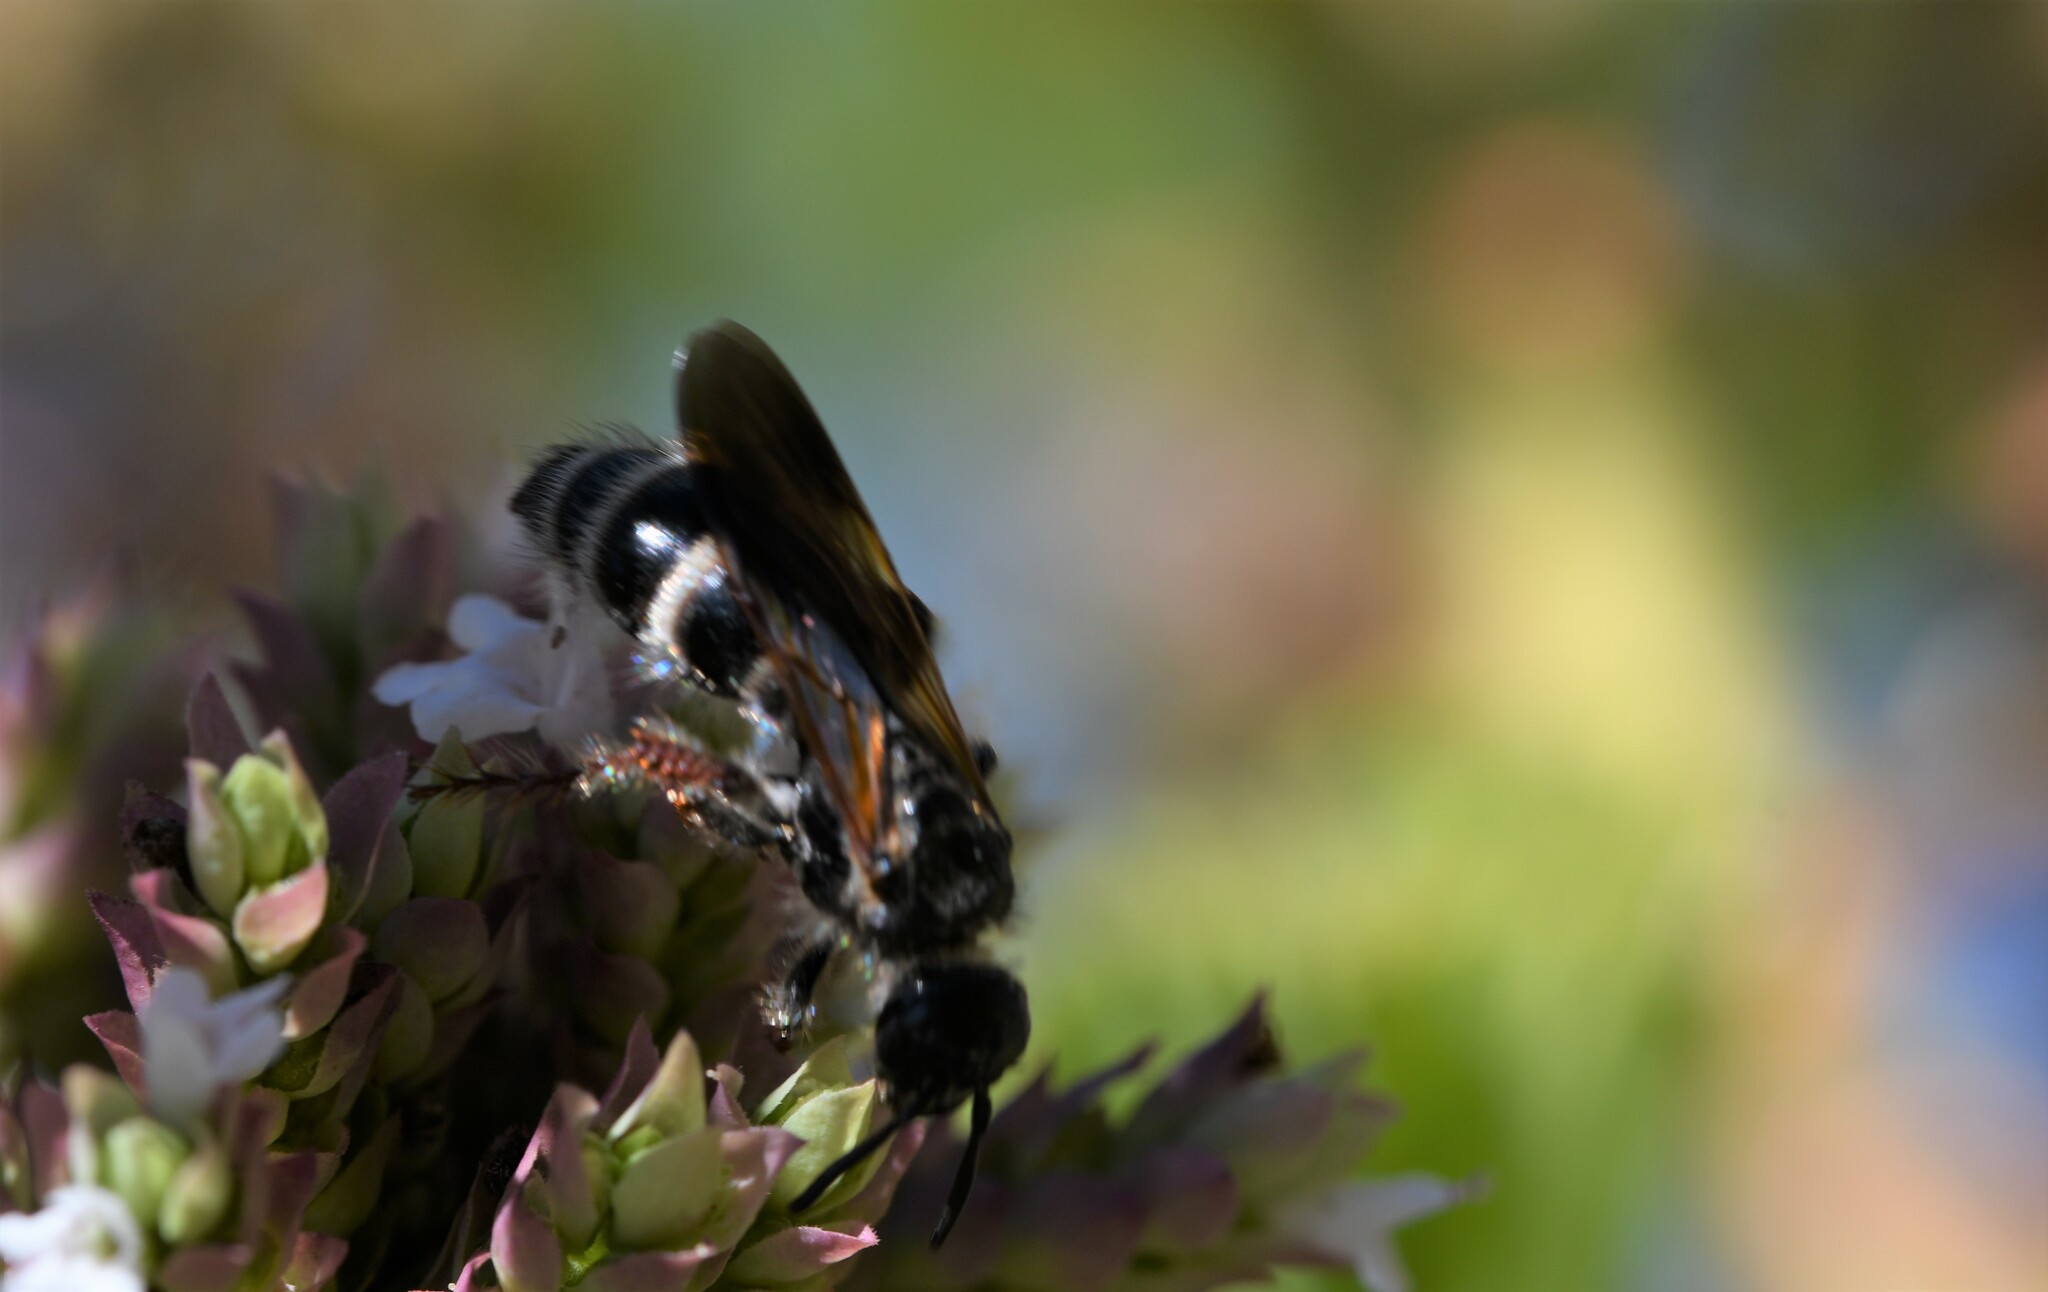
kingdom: Animalia
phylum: Arthropoda
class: Insecta
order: Hymenoptera
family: Scoliidae
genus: Colpa
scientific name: Colpa quinquecincta
